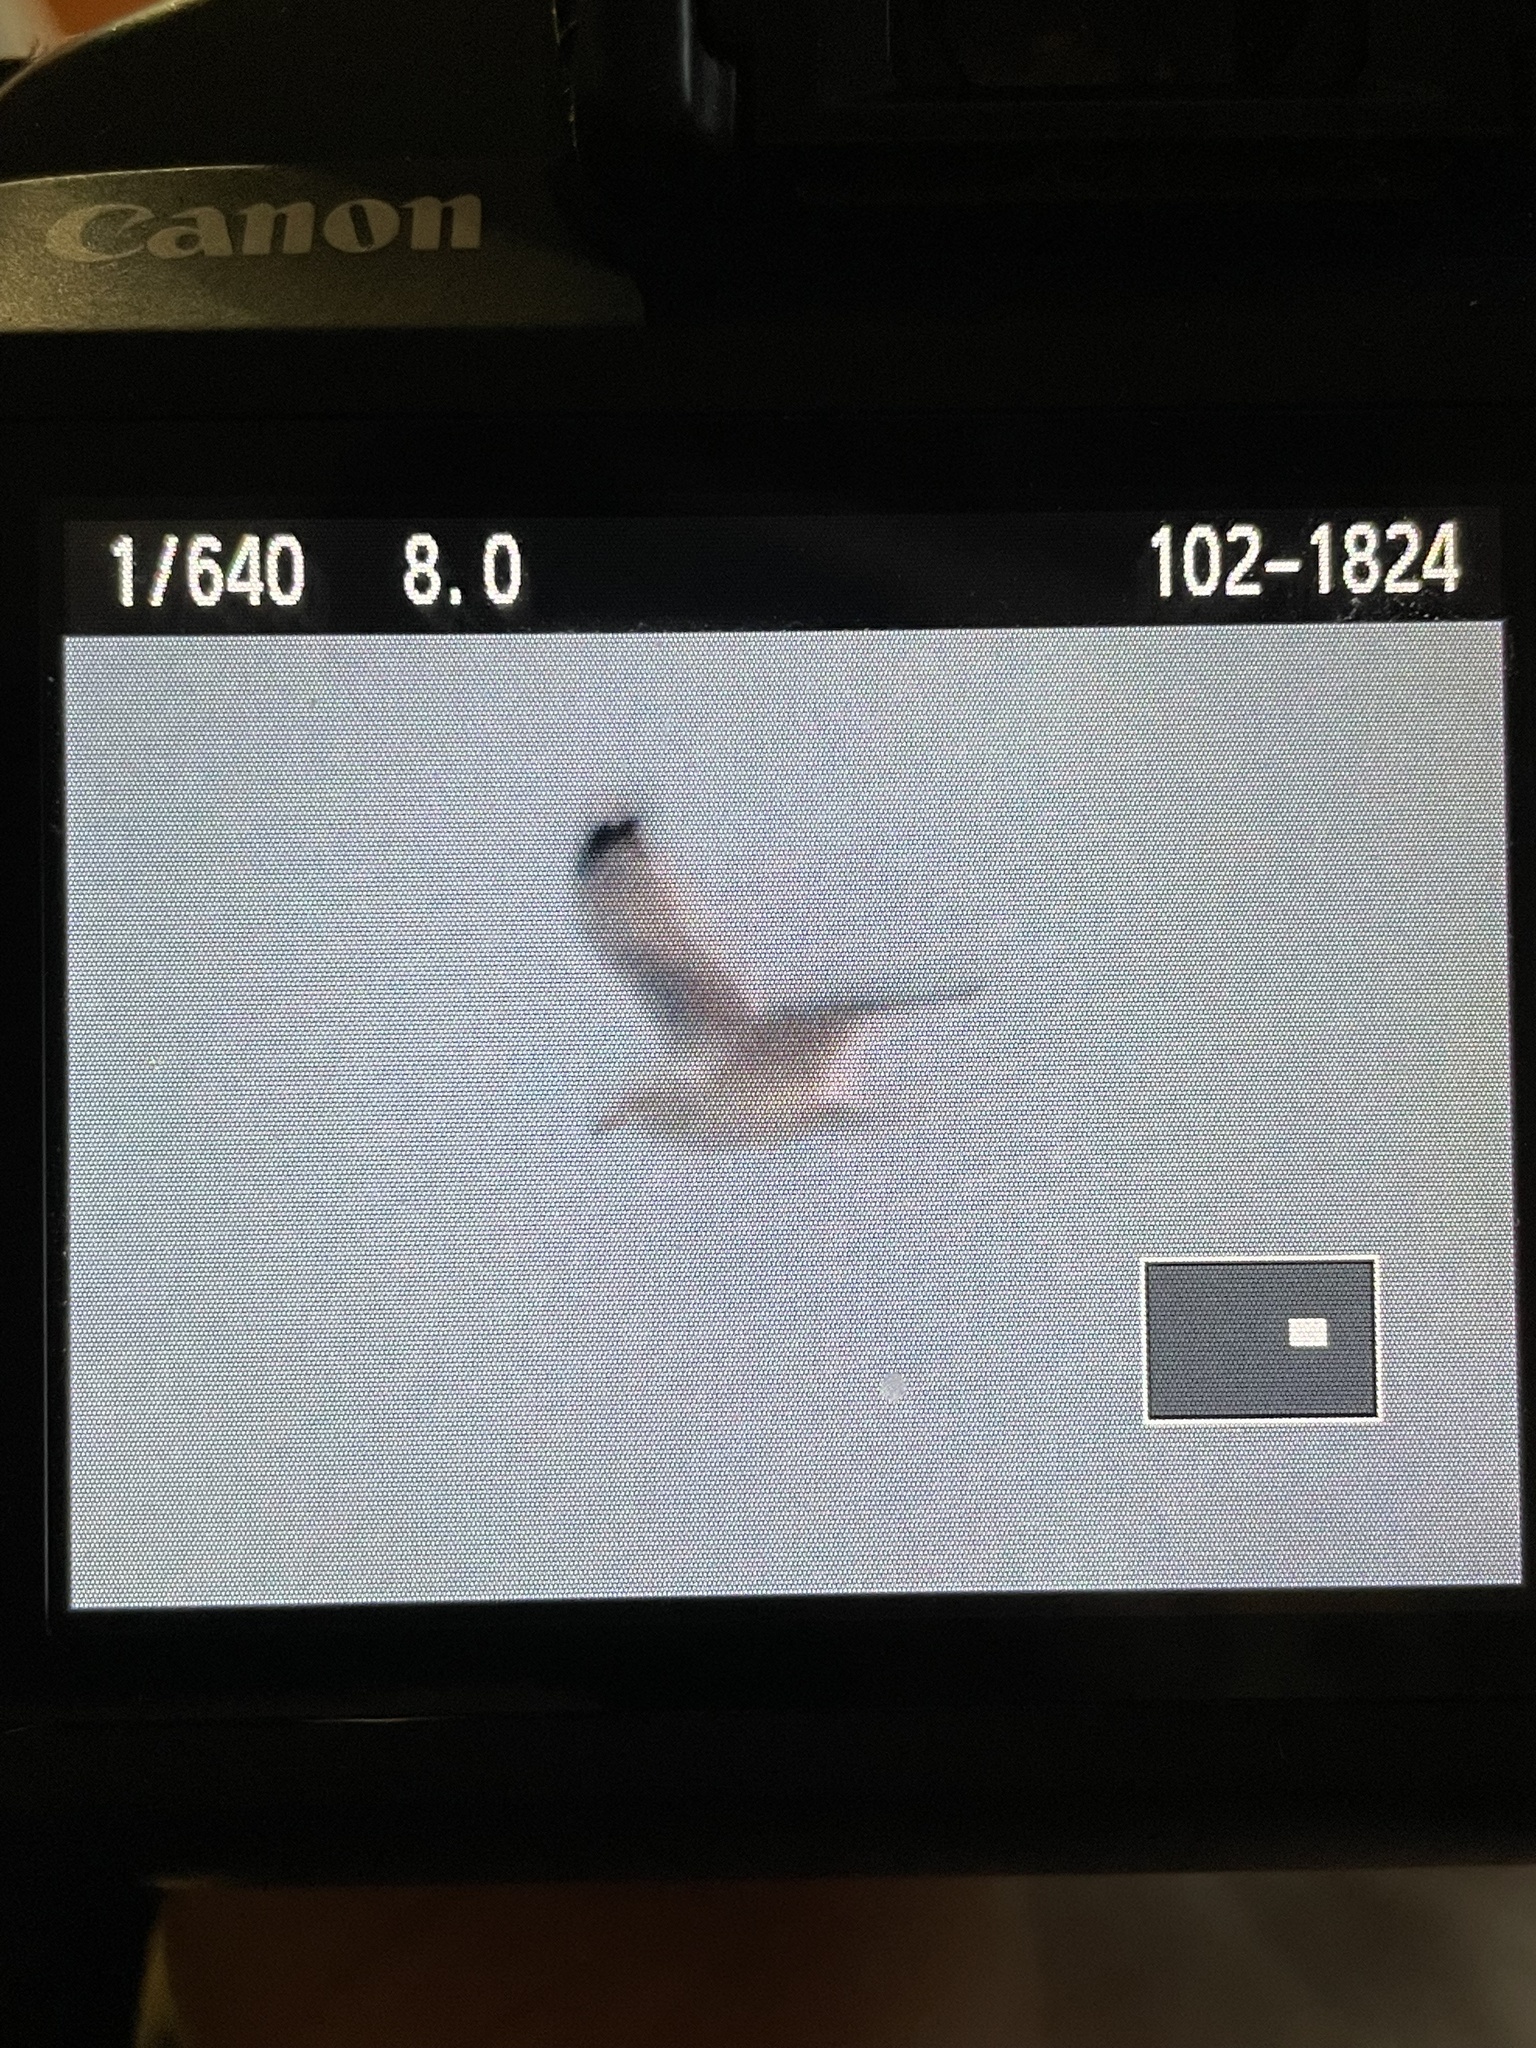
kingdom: Animalia
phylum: Chordata
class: Aves
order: Charadriiformes
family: Laridae
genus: Larus
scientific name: Larus argentatus
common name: Herring gull
